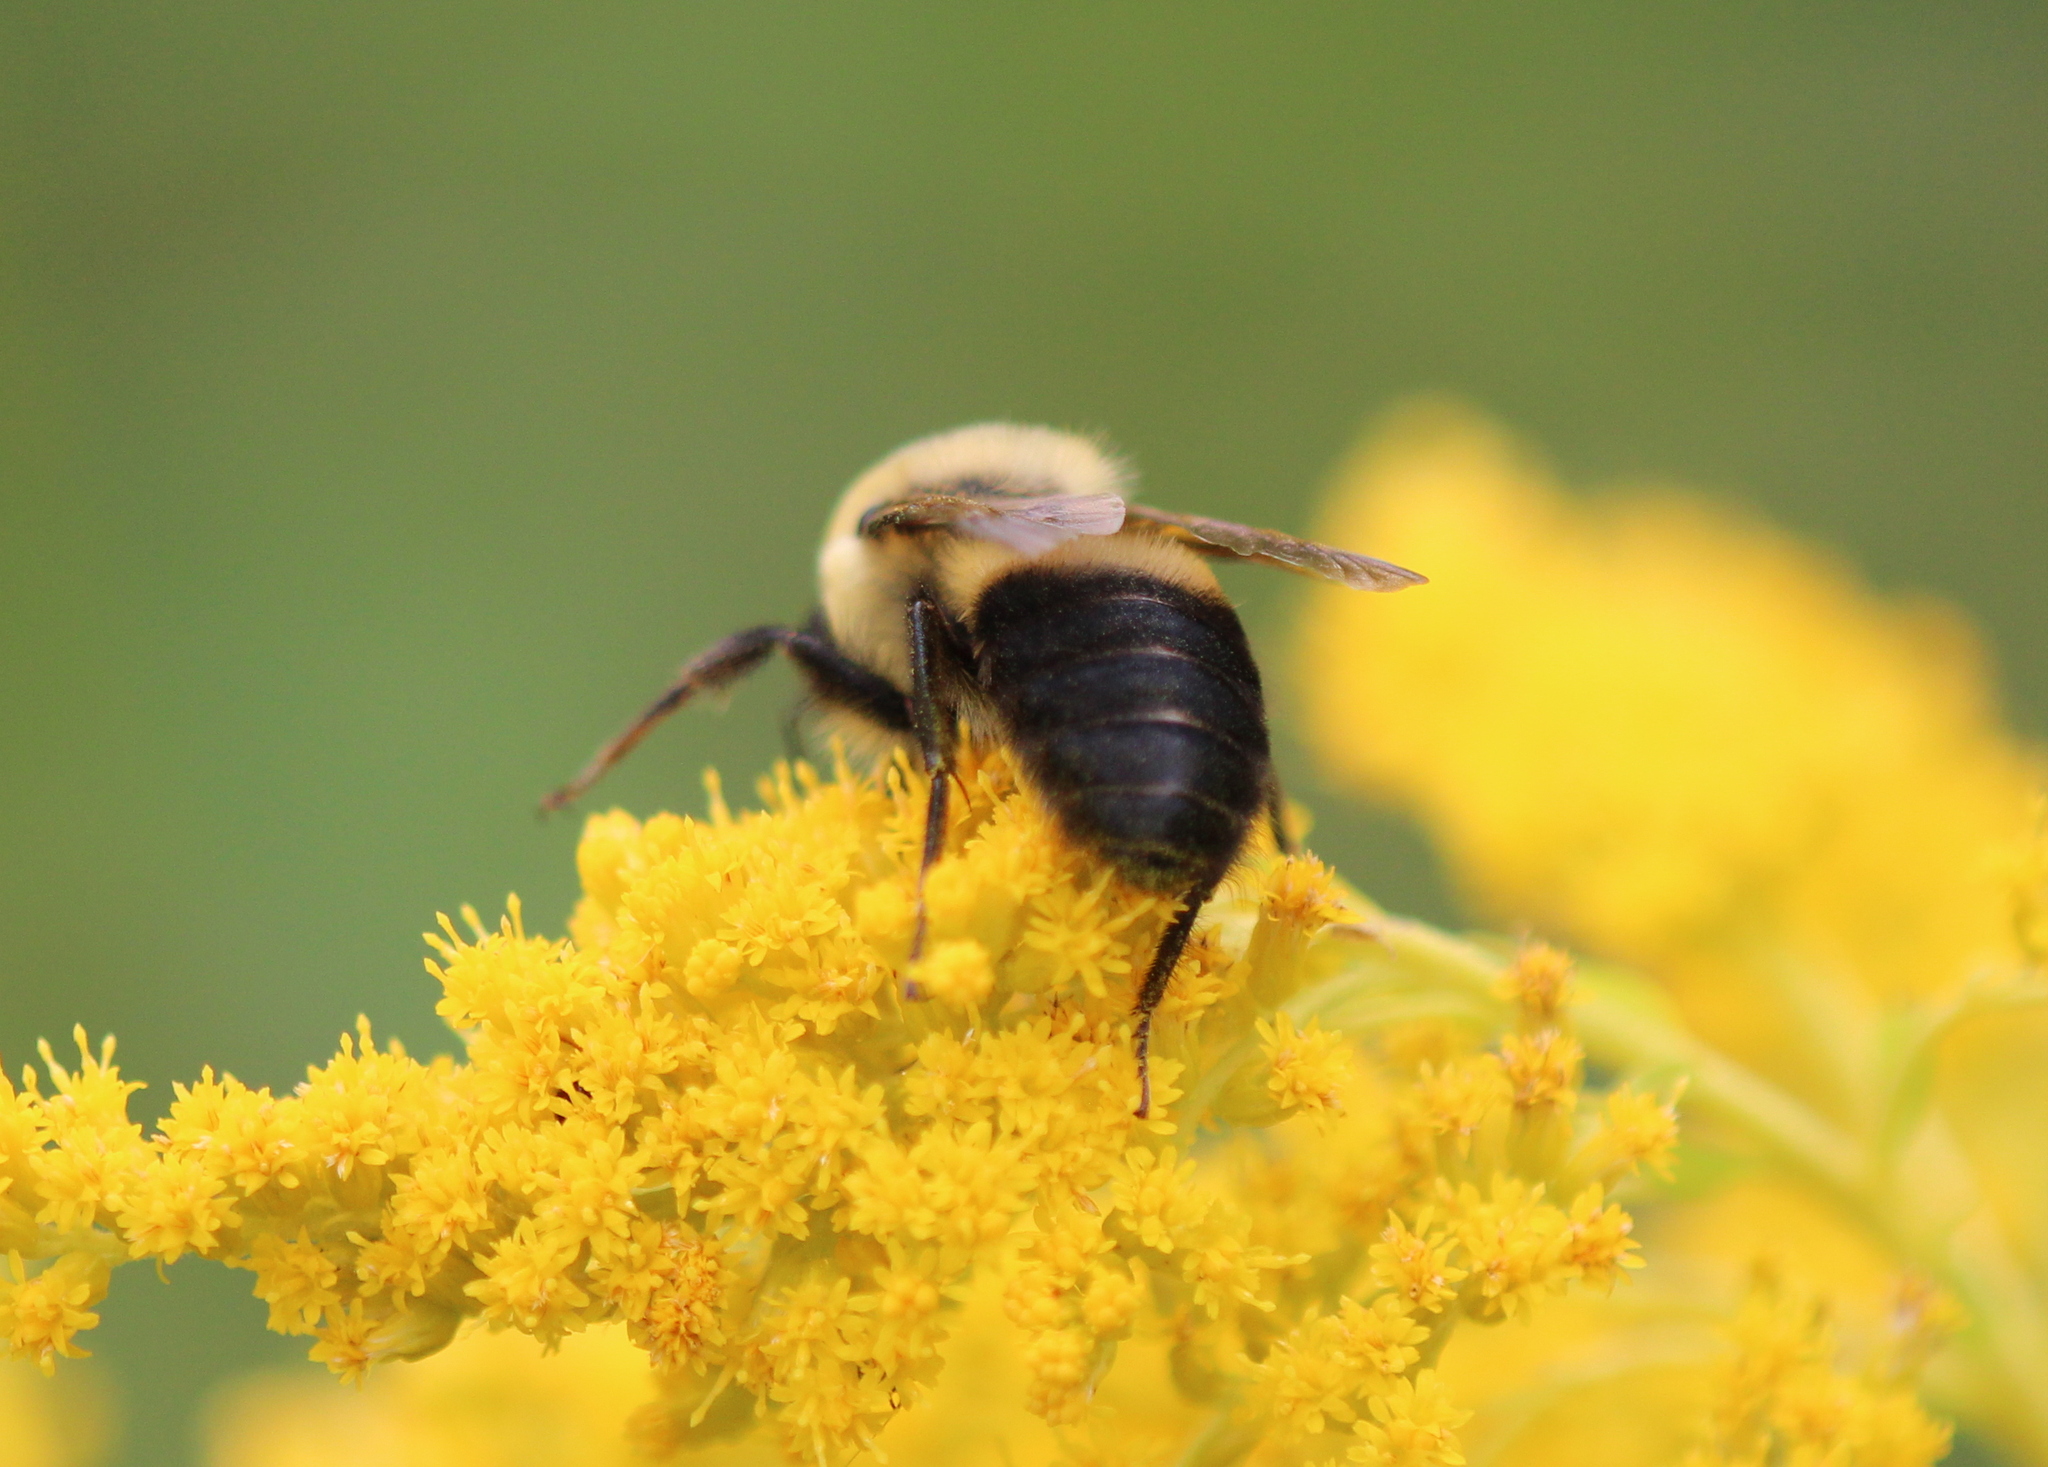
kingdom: Animalia
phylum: Arthropoda
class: Insecta
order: Hymenoptera
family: Apidae
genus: Bombus
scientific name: Bombus griseocollis
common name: Brown-belted bumble bee
